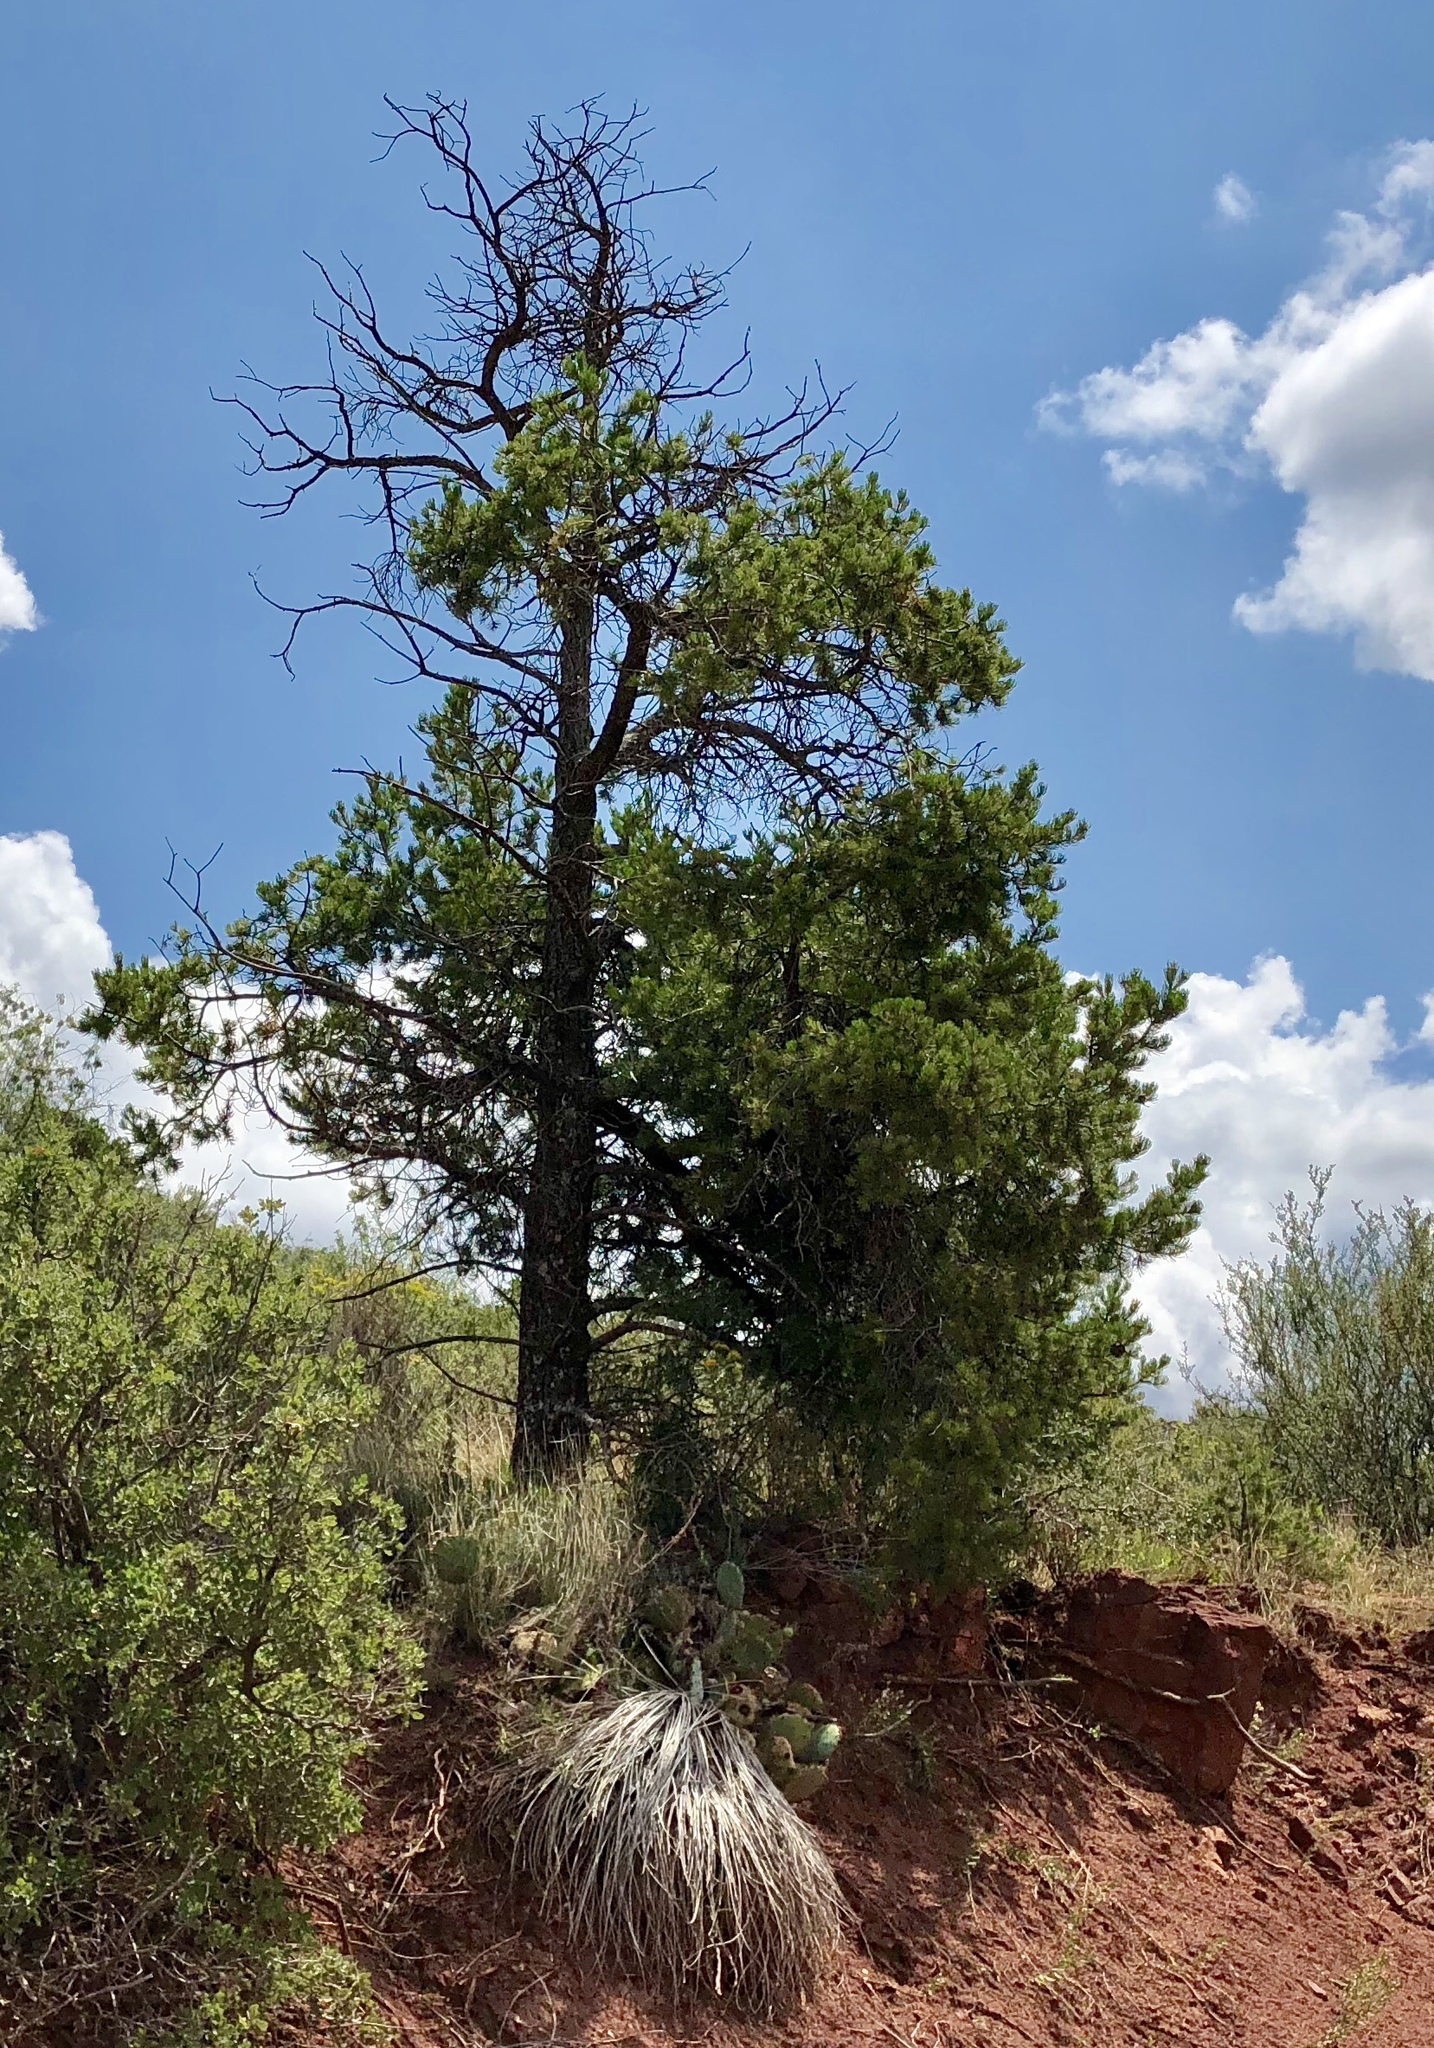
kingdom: Plantae
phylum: Tracheophyta
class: Pinopsida
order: Pinales
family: Pinaceae
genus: Pinus
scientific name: Pinus edulis
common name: Colorado pinyon
